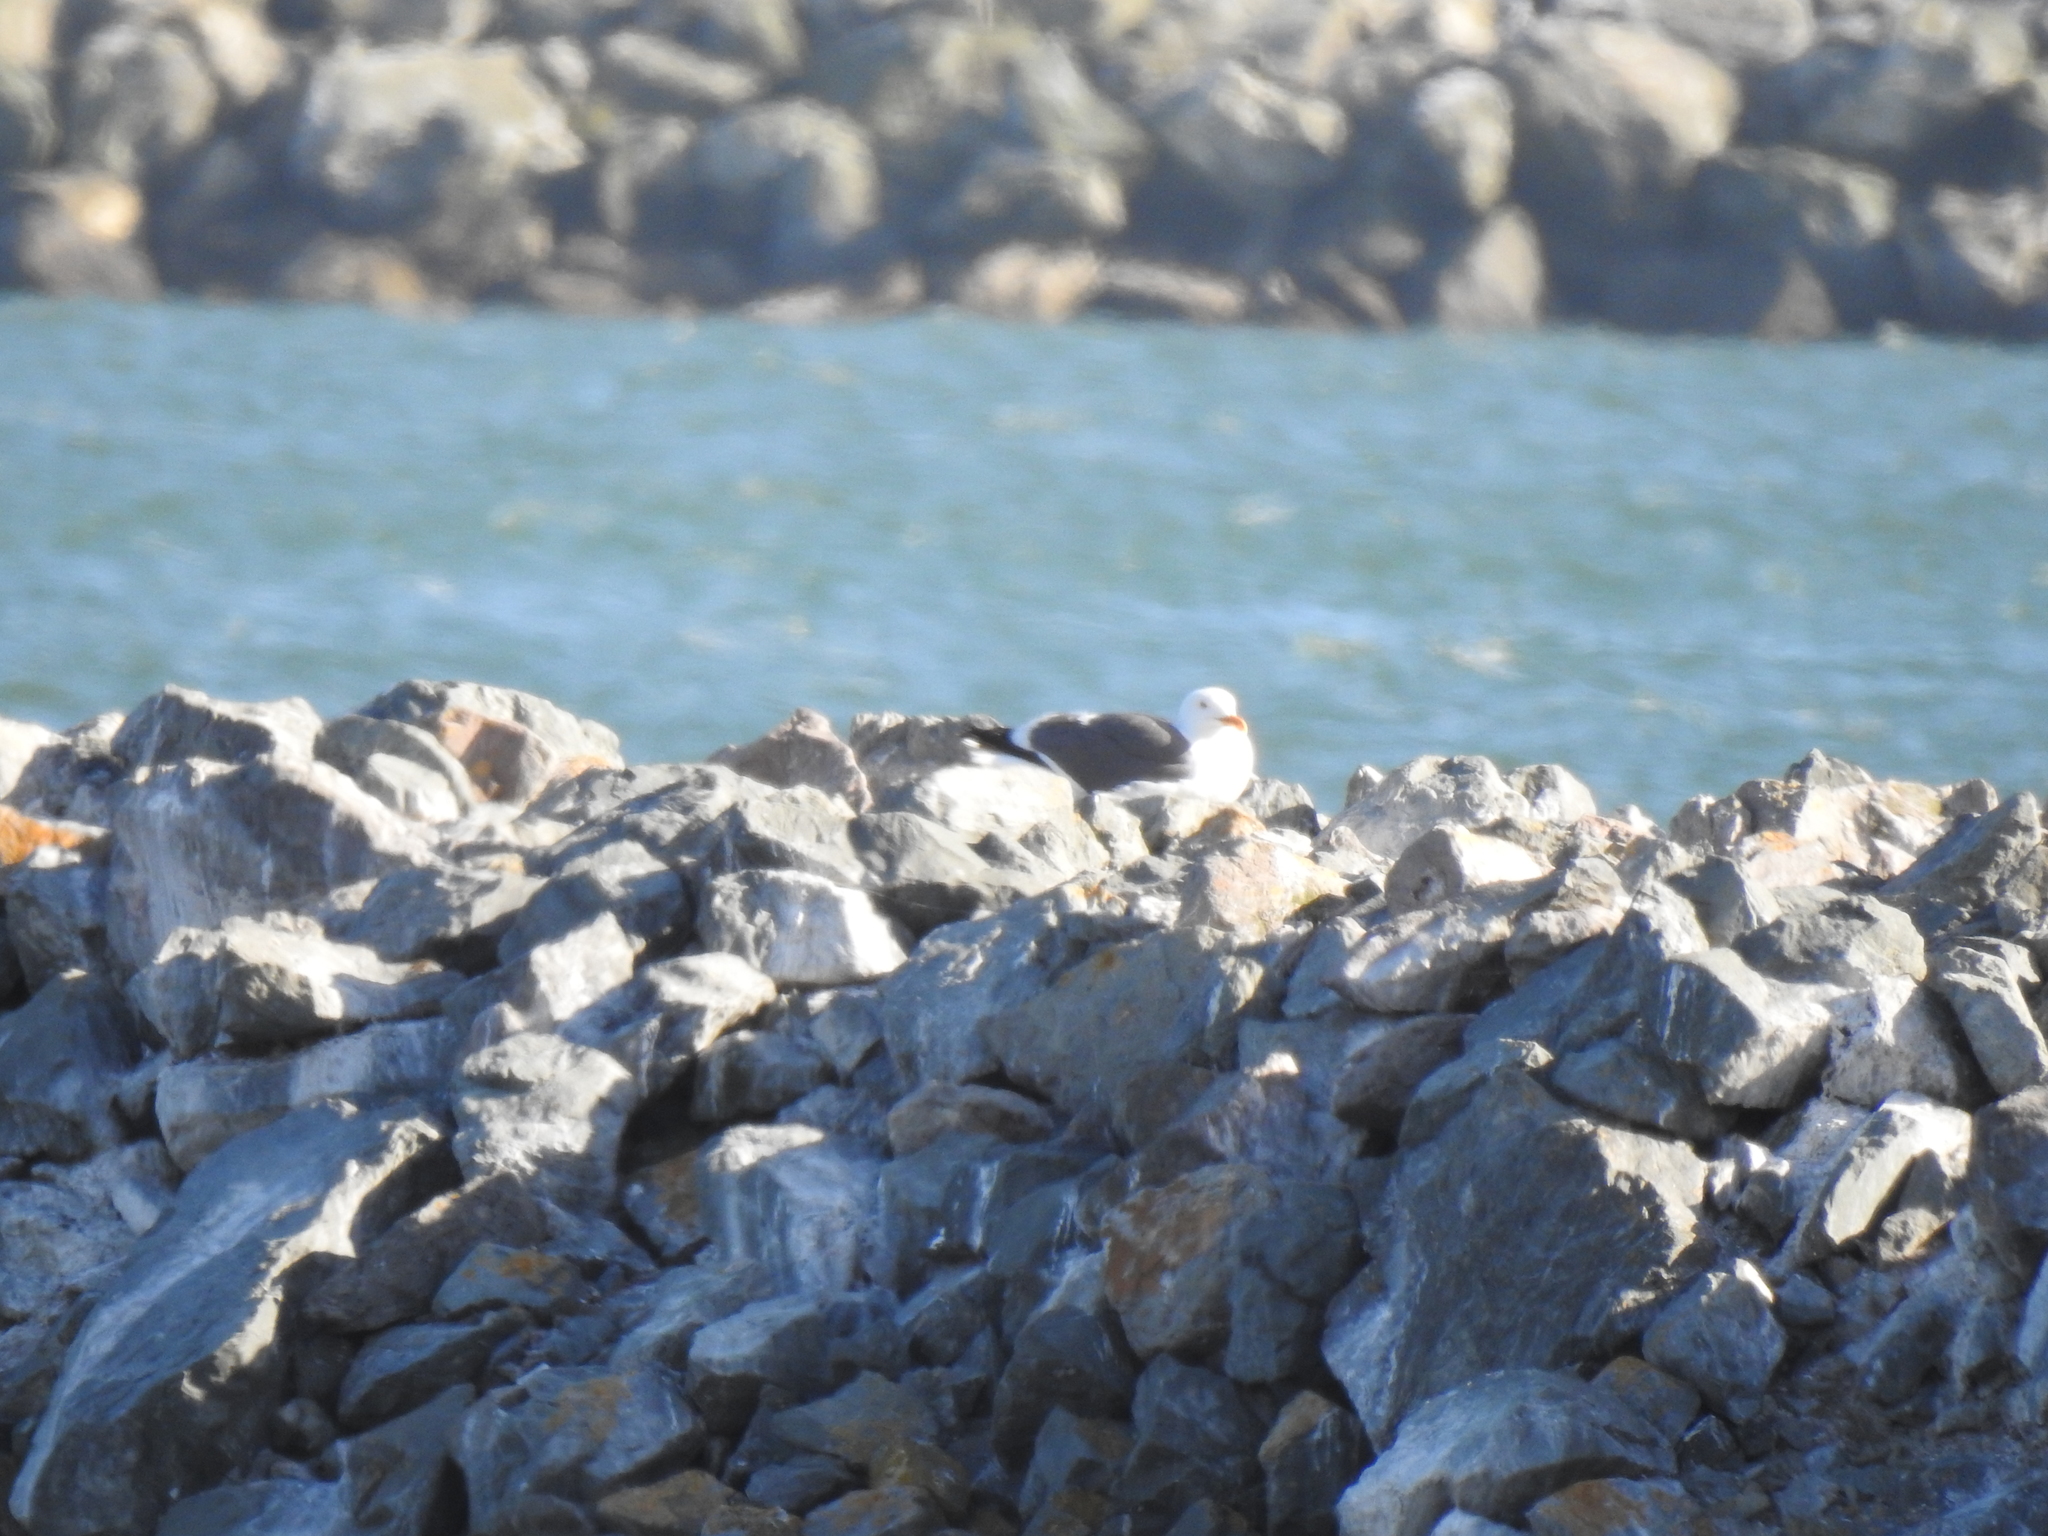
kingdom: Animalia
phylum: Chordata
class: Aves
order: Charadriiformes
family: Laridae
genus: Larus
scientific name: Larus occidentalis
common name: Western gull
